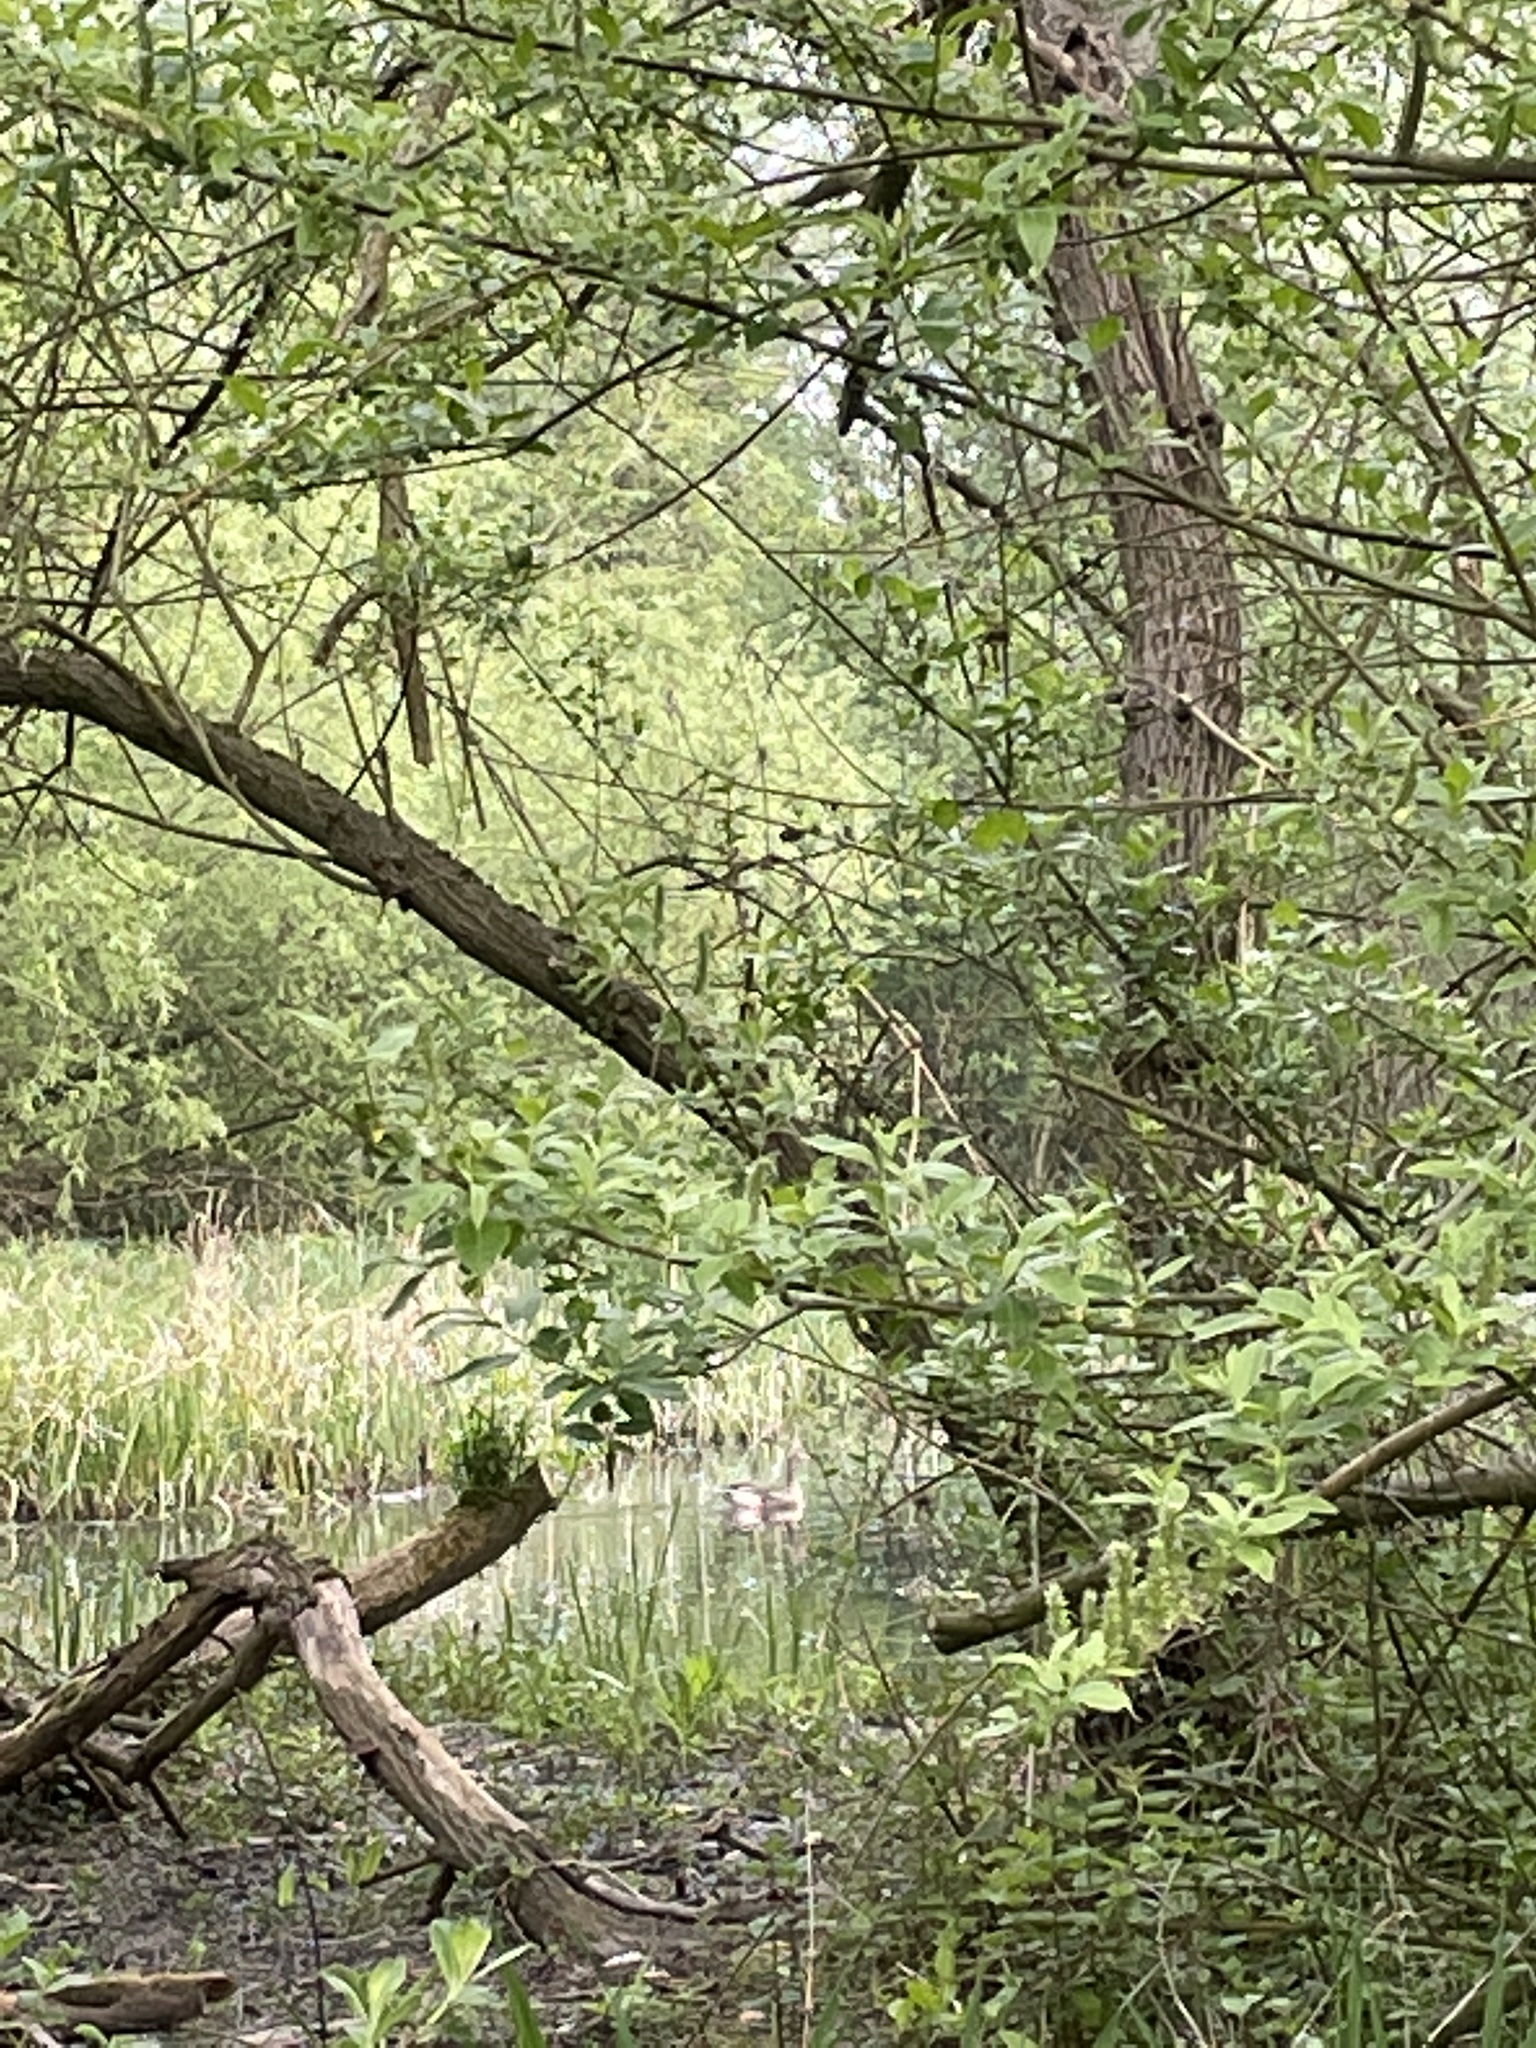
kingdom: Animalia
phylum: Chordata
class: Aves
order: Anseriformes
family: Anatidae
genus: Anser
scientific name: Anser anser
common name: Greylag goose
